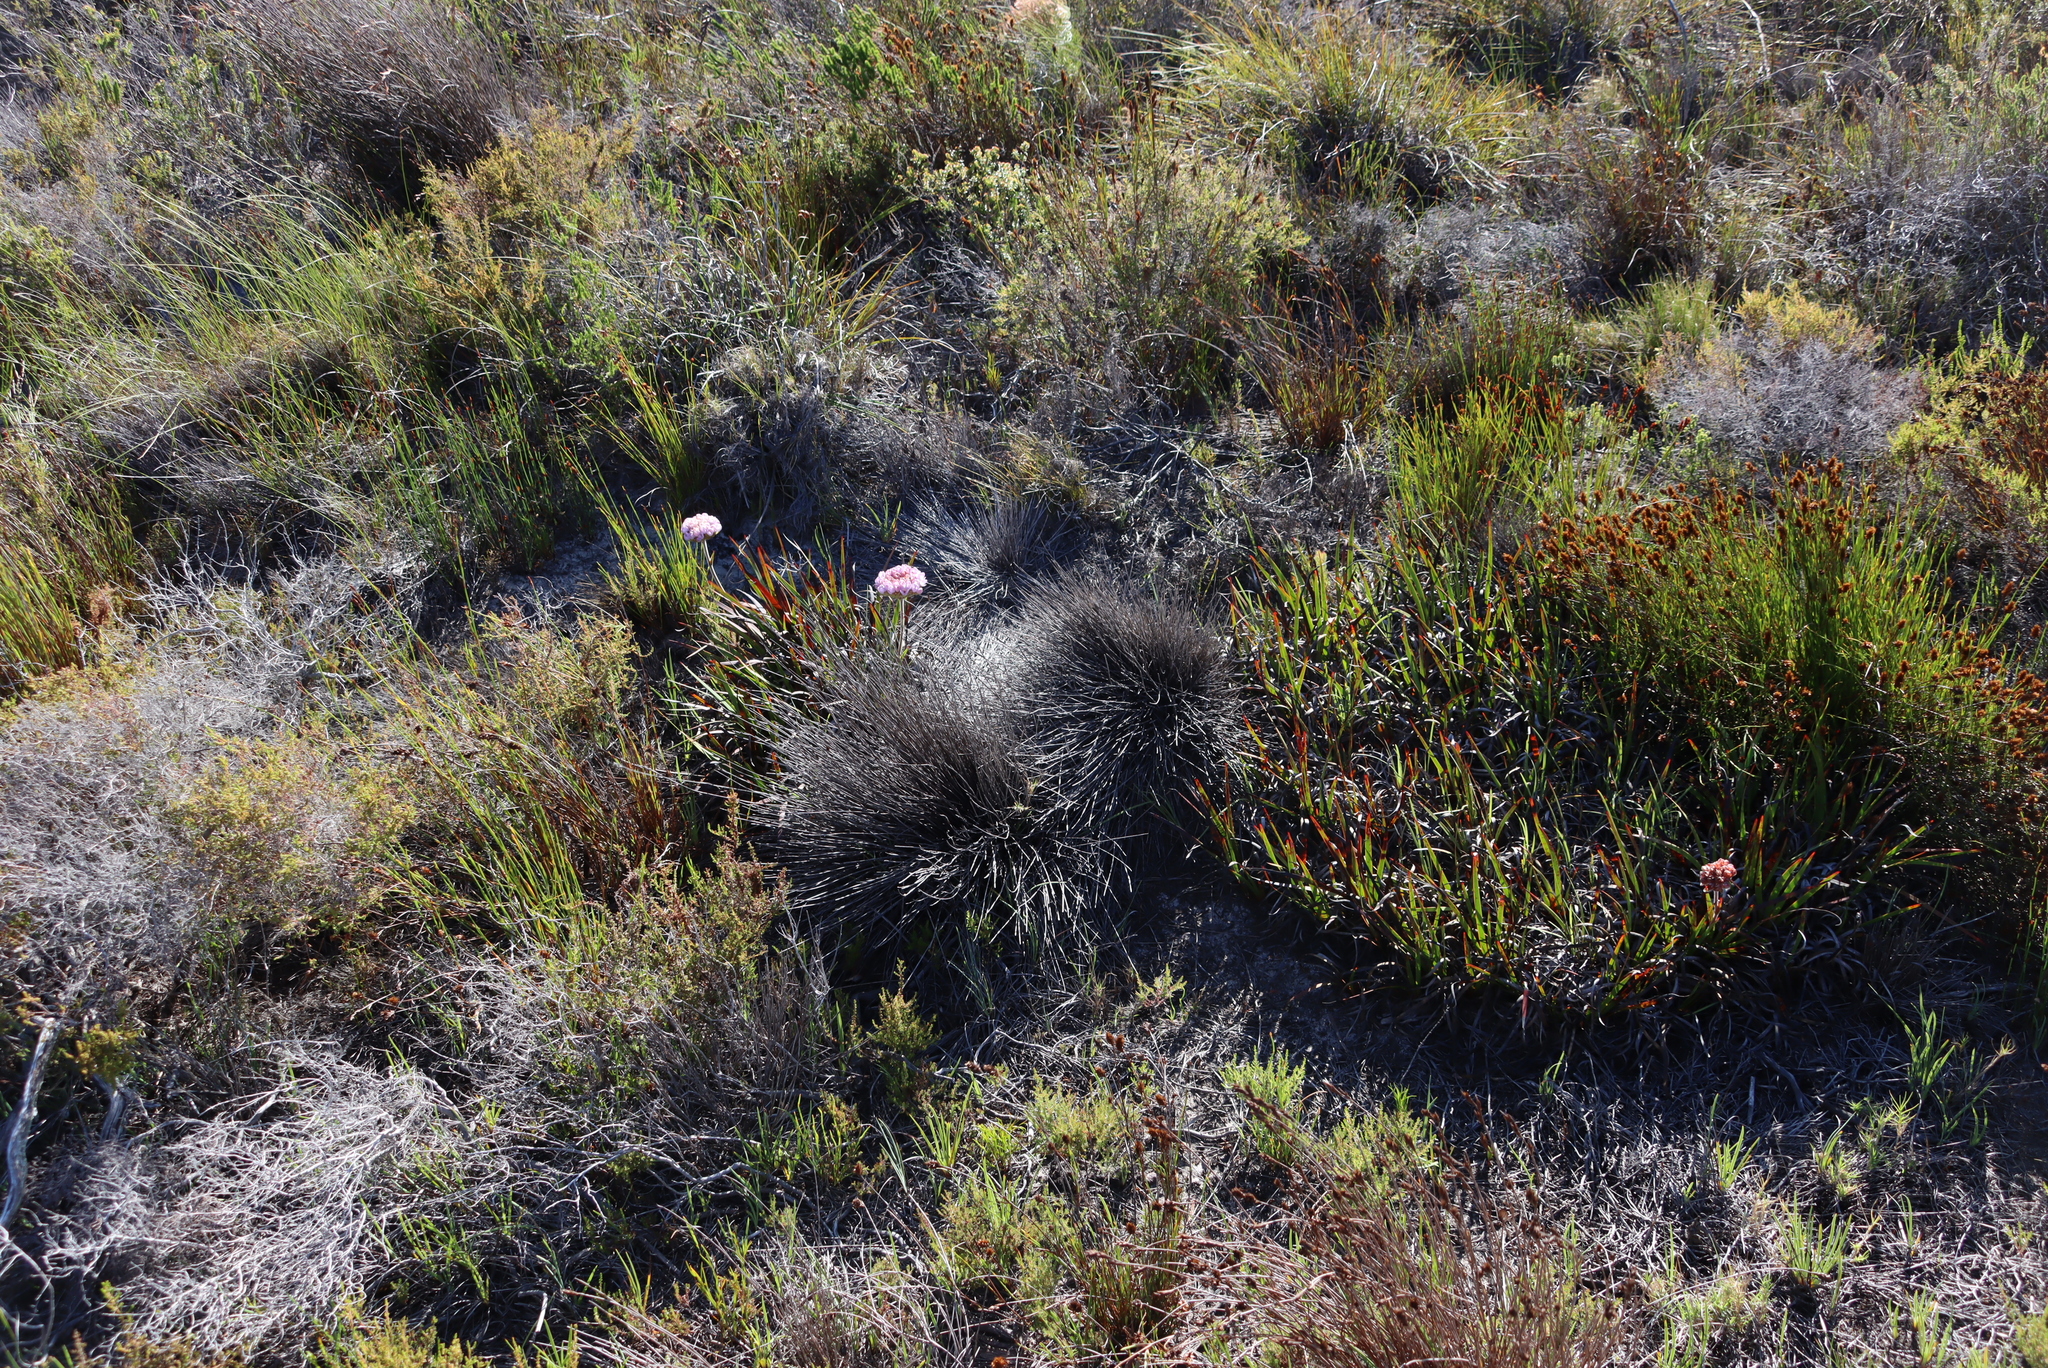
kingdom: Plantae
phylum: Tracheophyta
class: Liliopsida
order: Commelinales
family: Haemodoraceae
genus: Dilatris
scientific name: Dilatris pillansii
